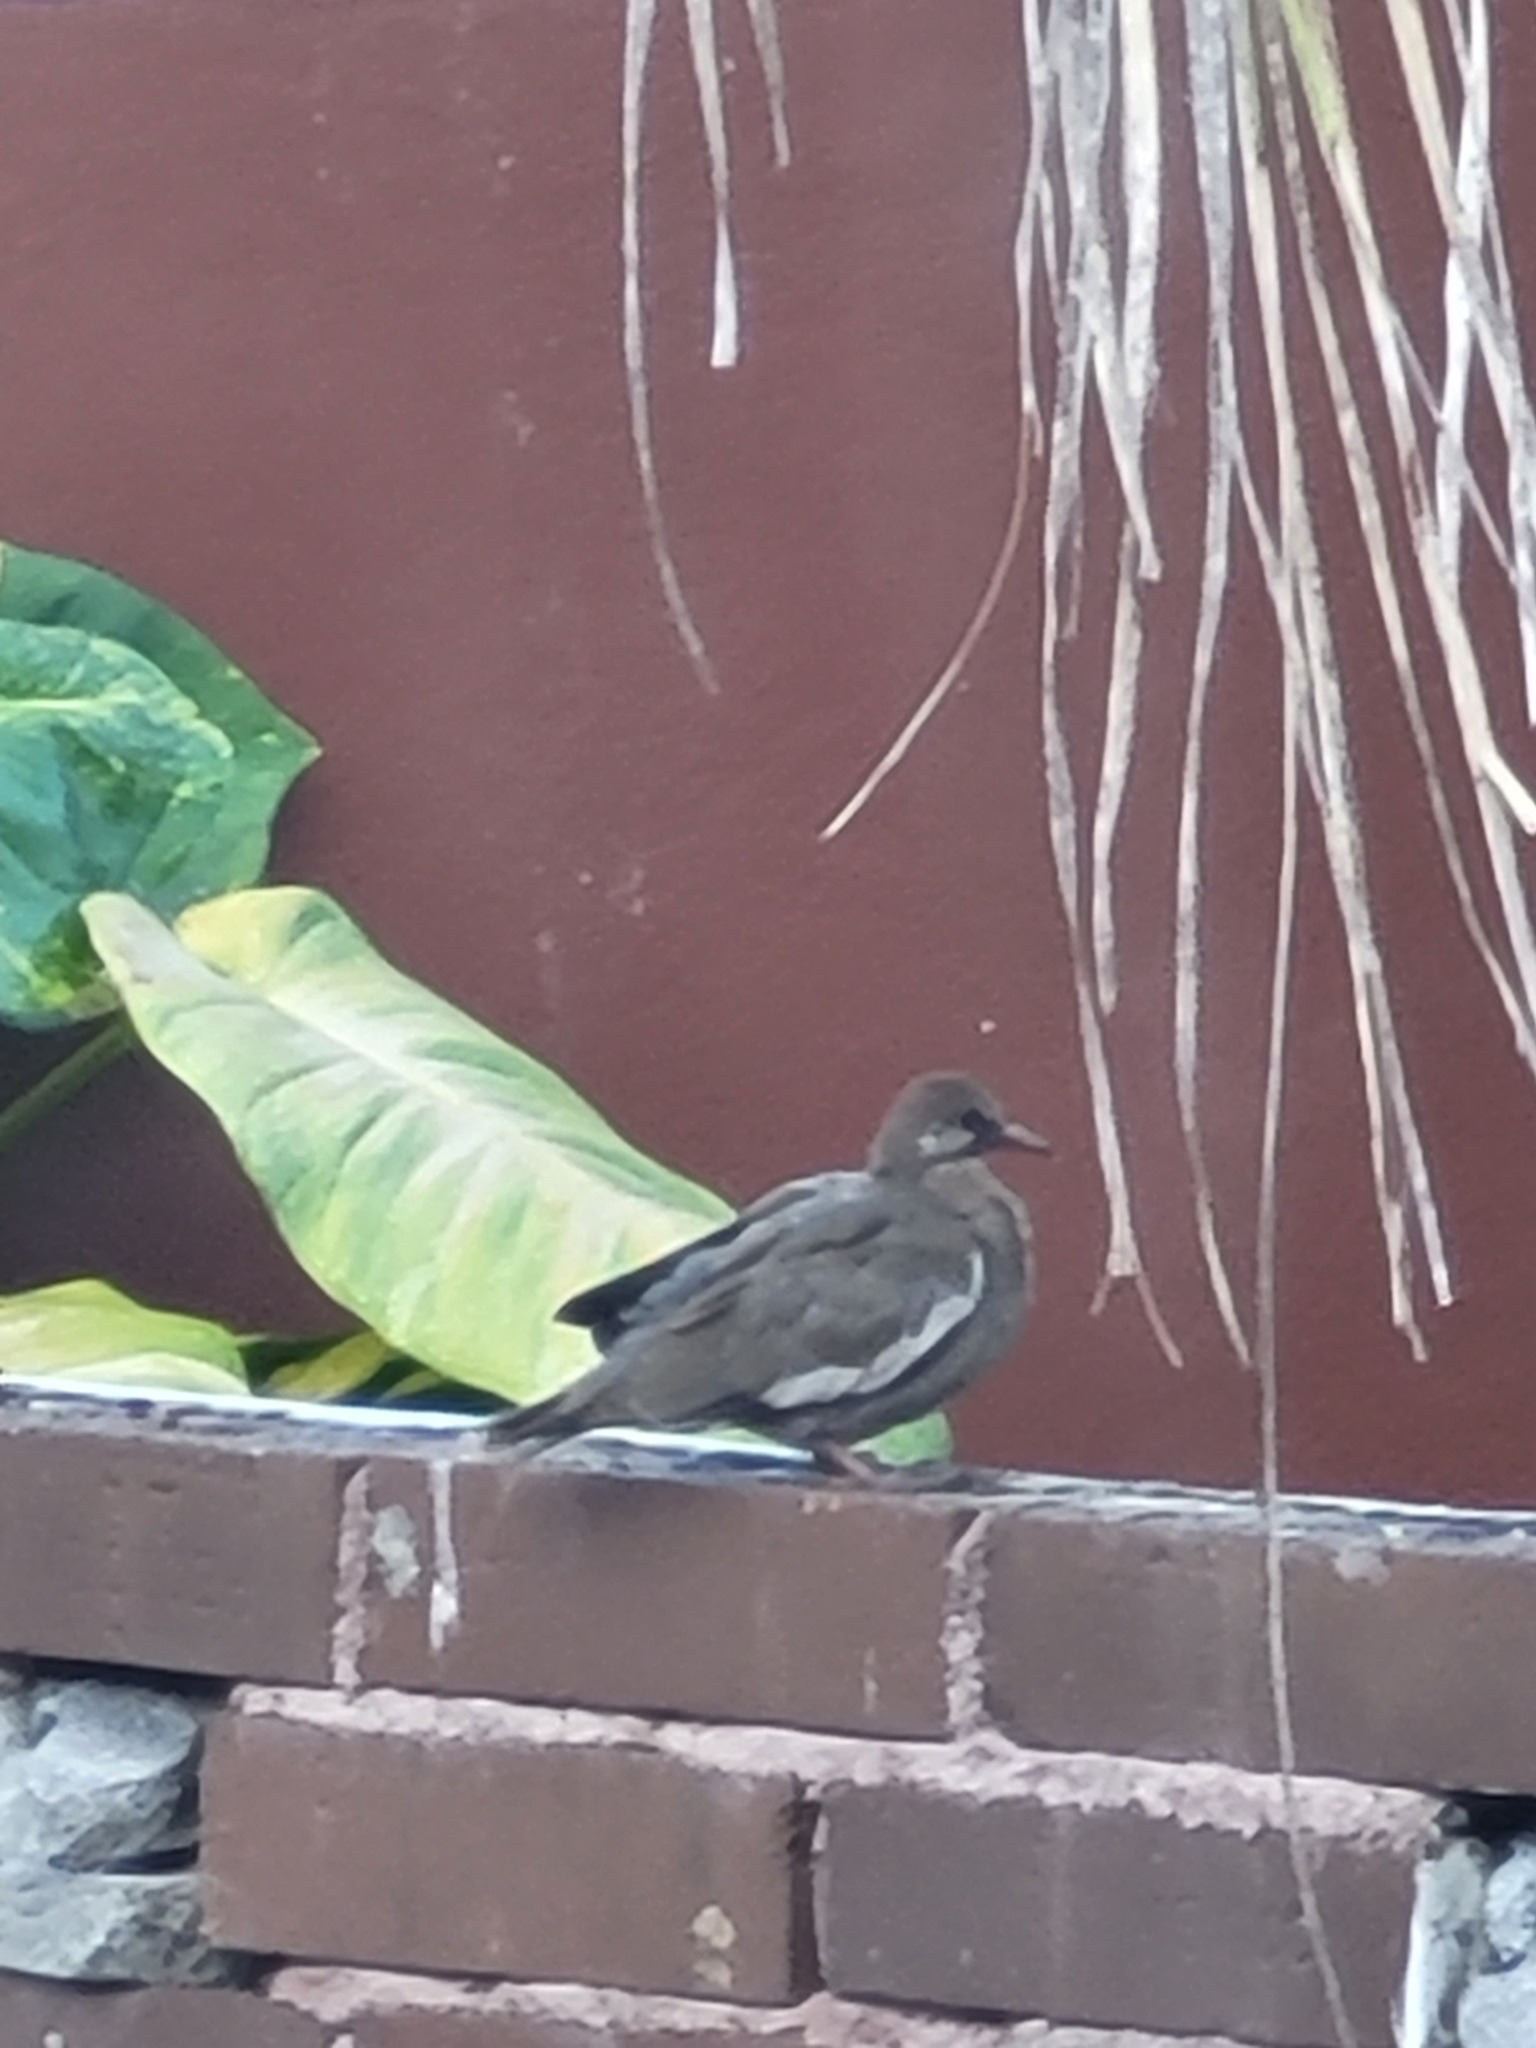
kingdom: Animalia
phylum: Chordata
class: Aves
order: Columbiformes
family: Columbidae
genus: Zenaida
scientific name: Zenaida asiatica
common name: White-winged dove
